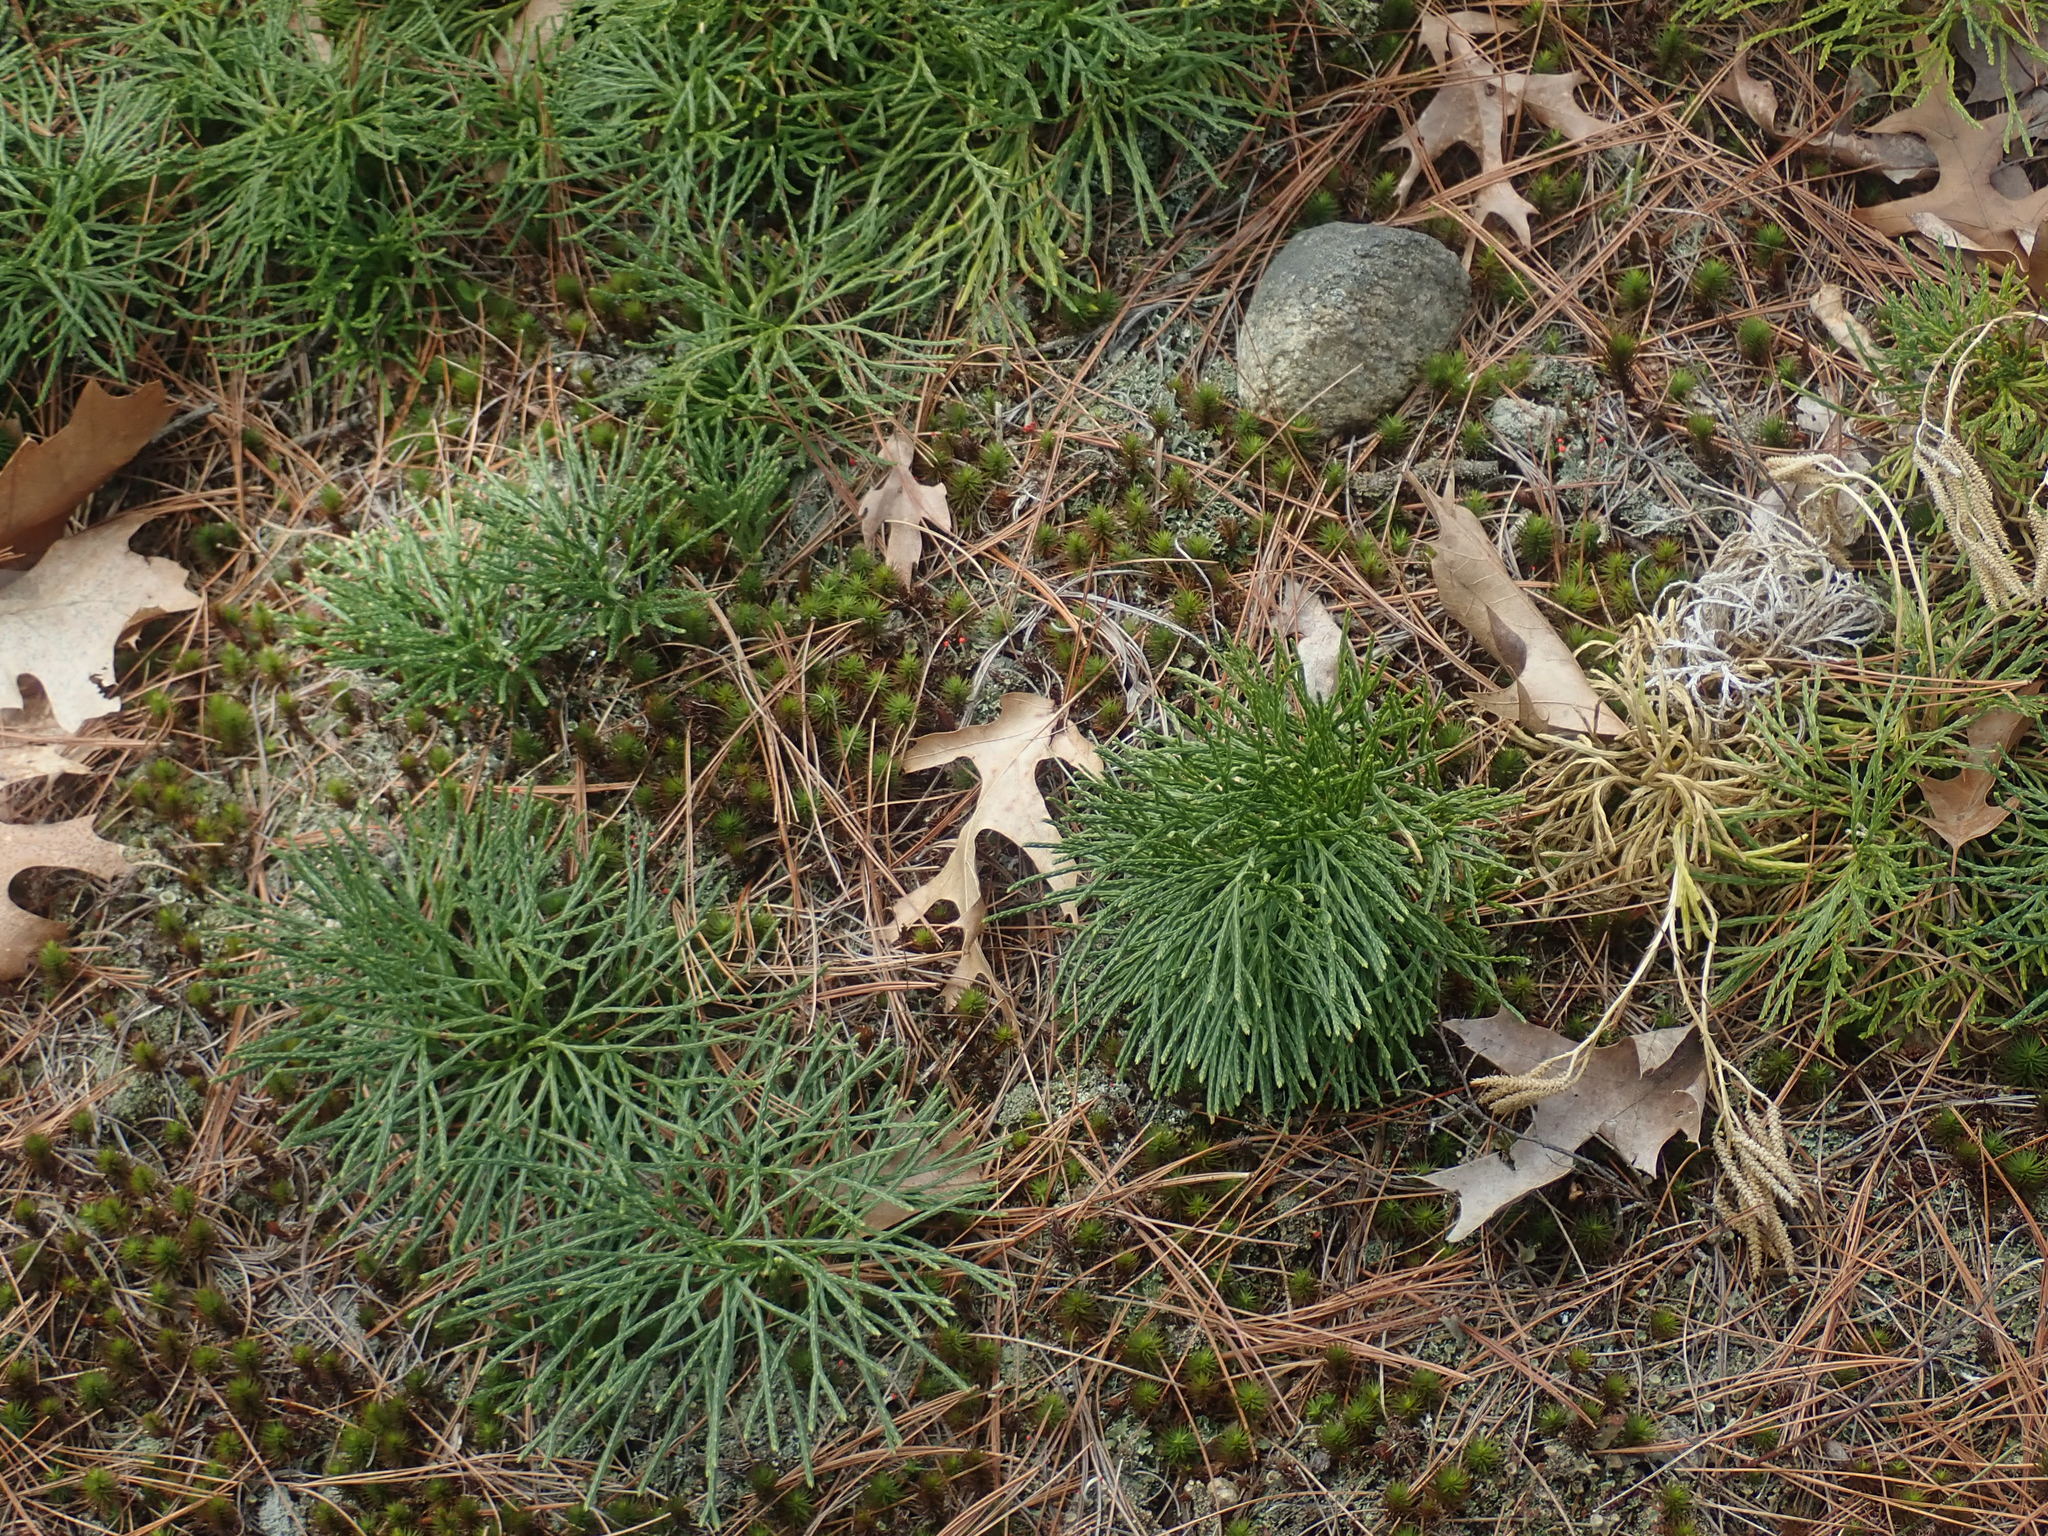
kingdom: Plantae
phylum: Tracheophyta
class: Lycopodiopsida
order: Lycopodiales
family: Lycopodiaceae
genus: Diphasiastrum
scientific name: Diphasiastrum tristachyum
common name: Blue ground-cedar
